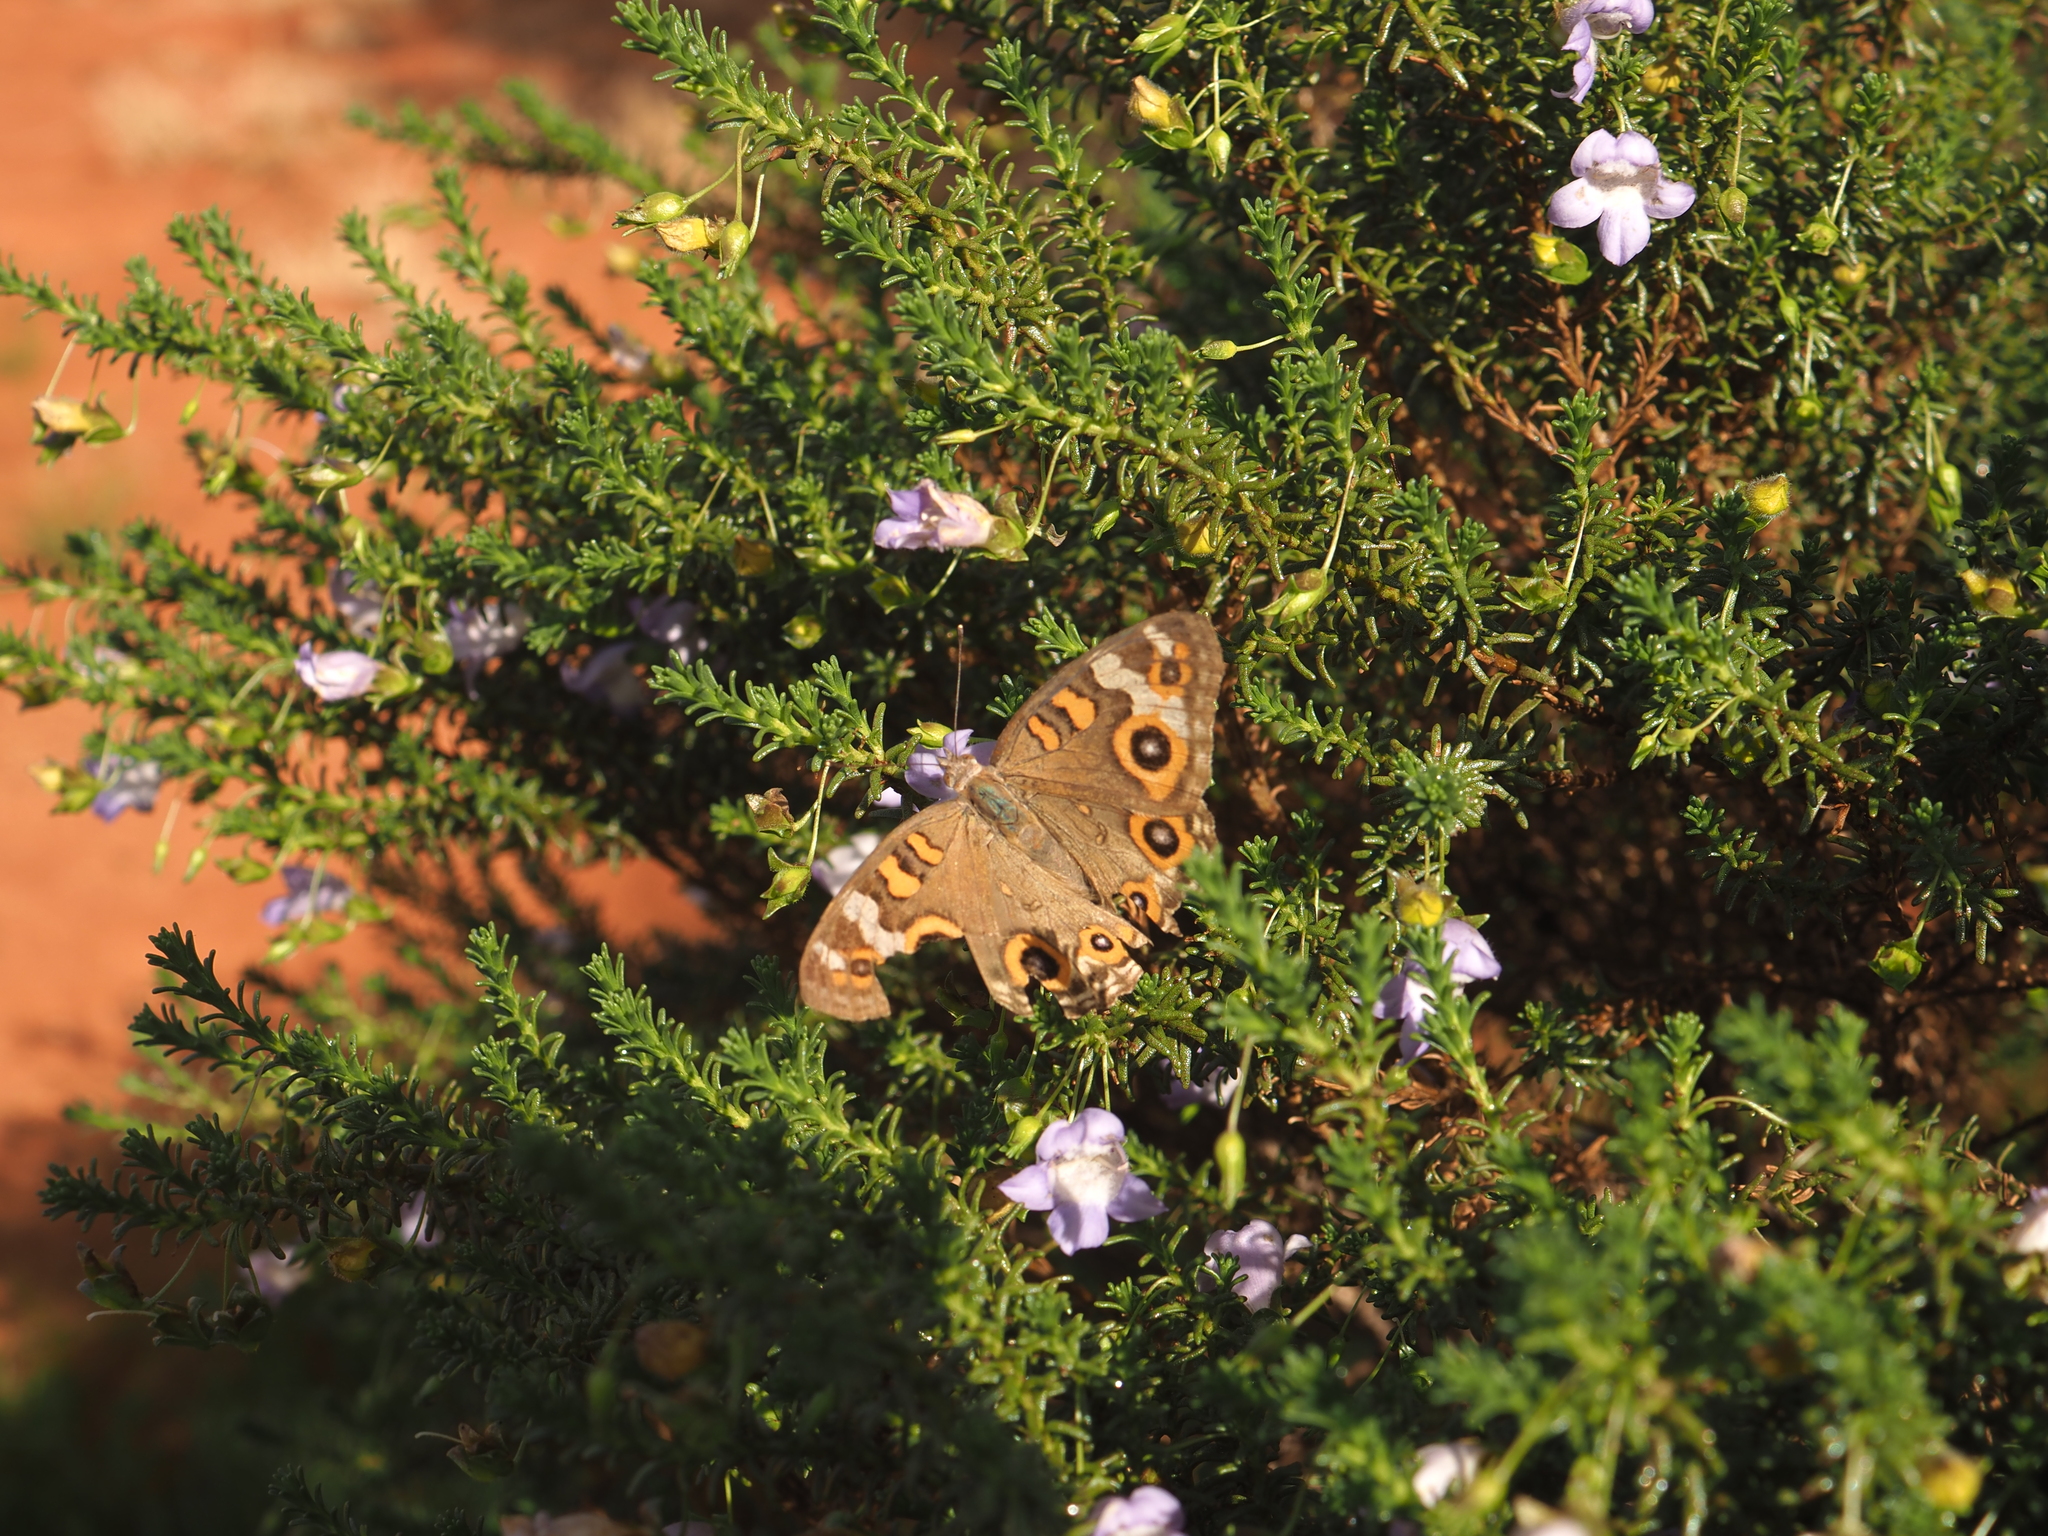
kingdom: Animalia
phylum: Arthropoda
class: Insecta
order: Lepidoptera
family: Nymphalidae
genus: Junonia
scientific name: Junonia villida
